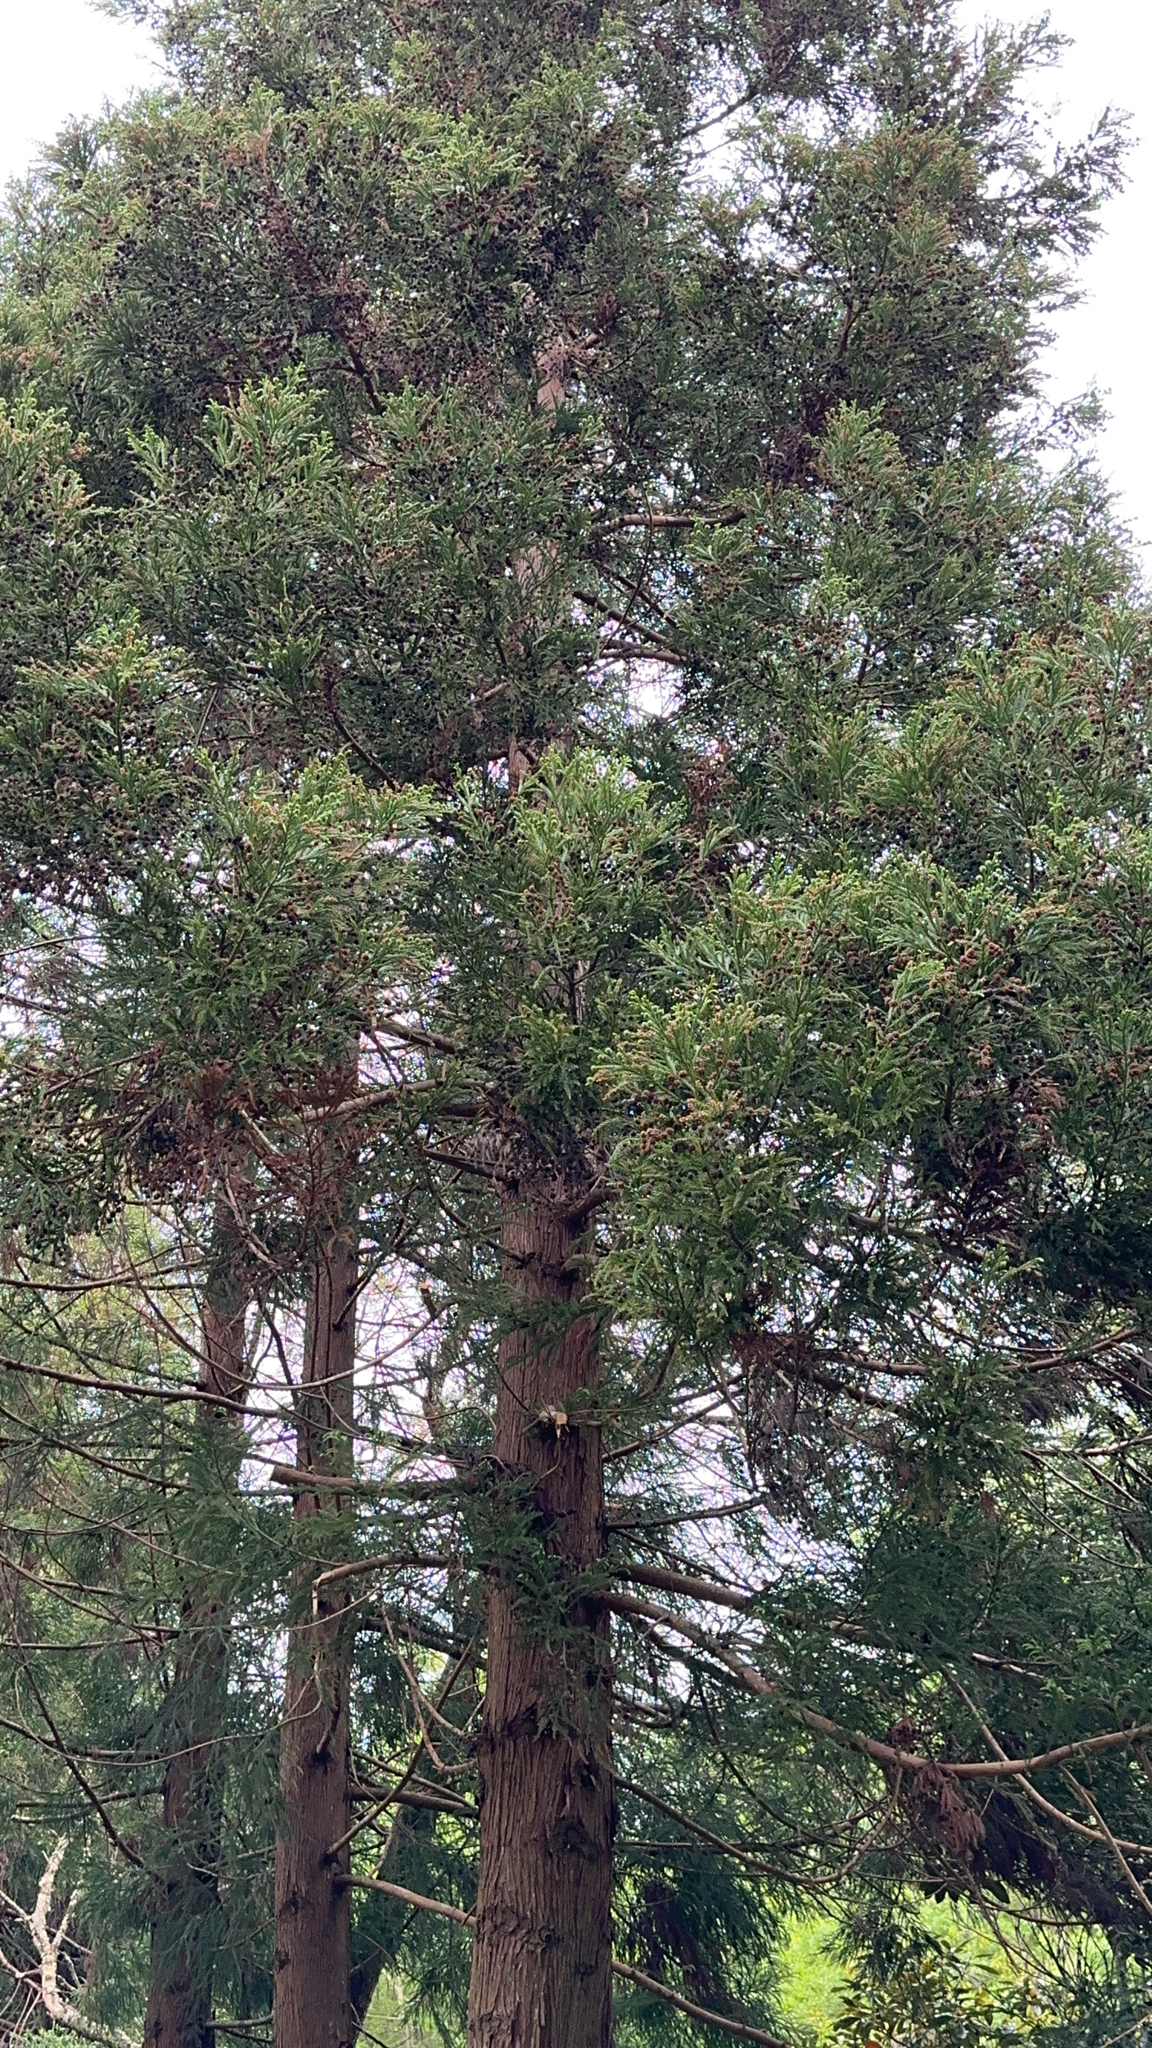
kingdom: Plantae
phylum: Tracheophyta
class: Pinopsida
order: Pinales
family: Cupressaceae
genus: Cryptomeria
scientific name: Cryptomeria japonica
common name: Japanese cedar
